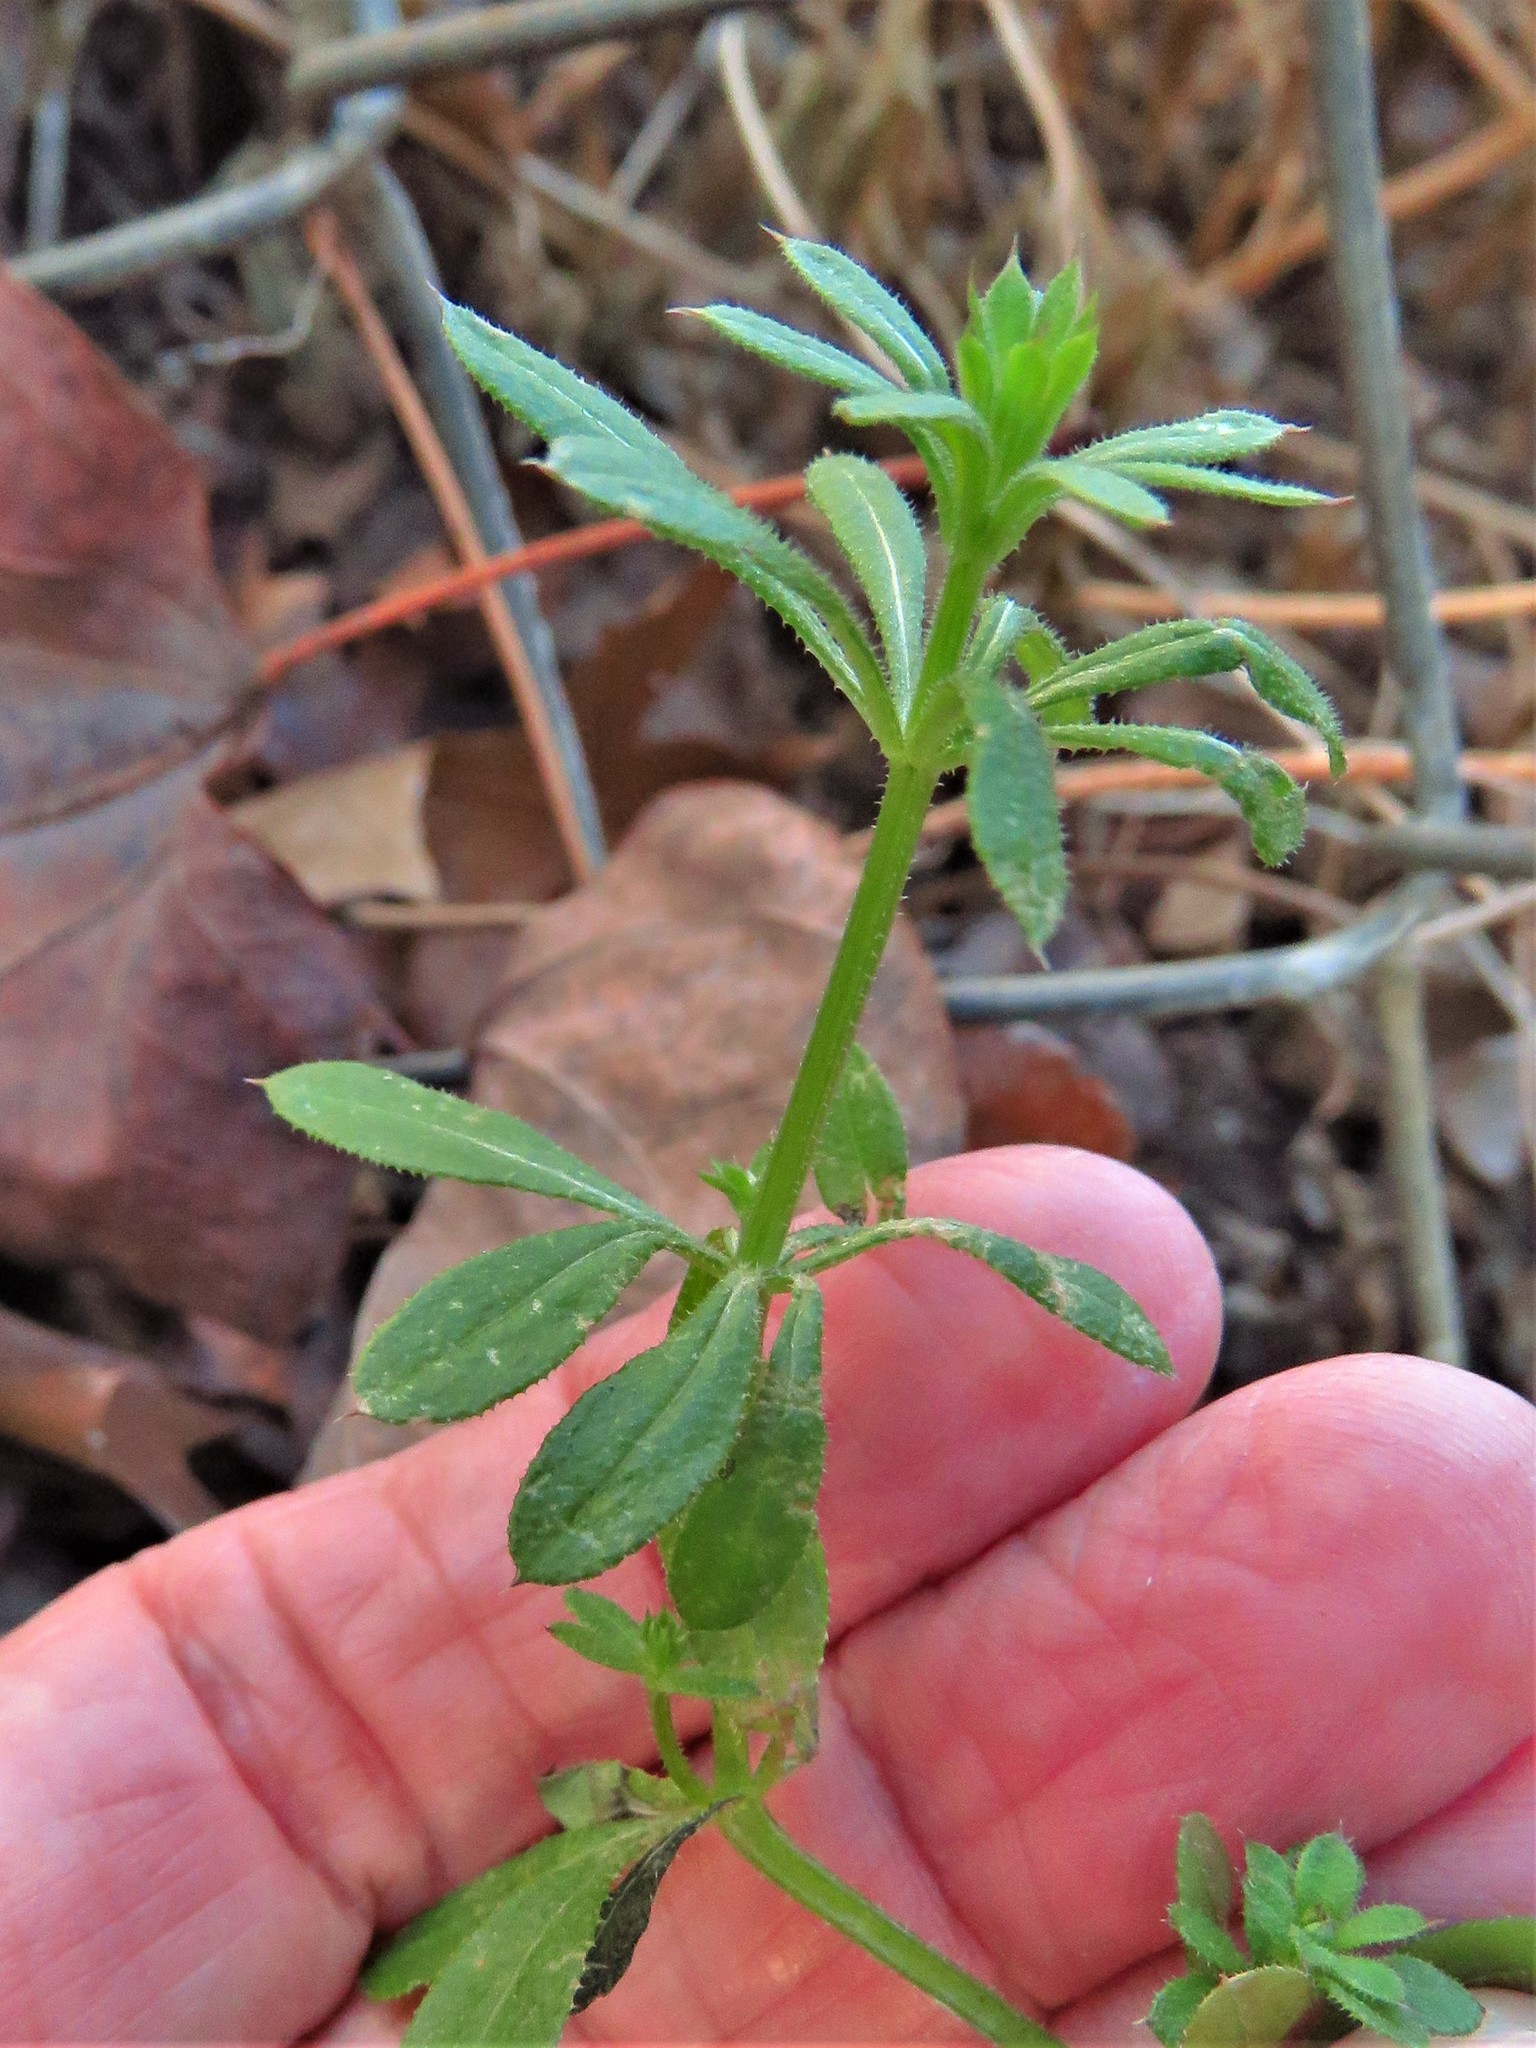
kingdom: Plantae
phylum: Tracheophyta
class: Magnoliopsida
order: Gentianales
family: Rubiaceae
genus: Galium
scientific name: Galium aparine
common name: Cleavers
